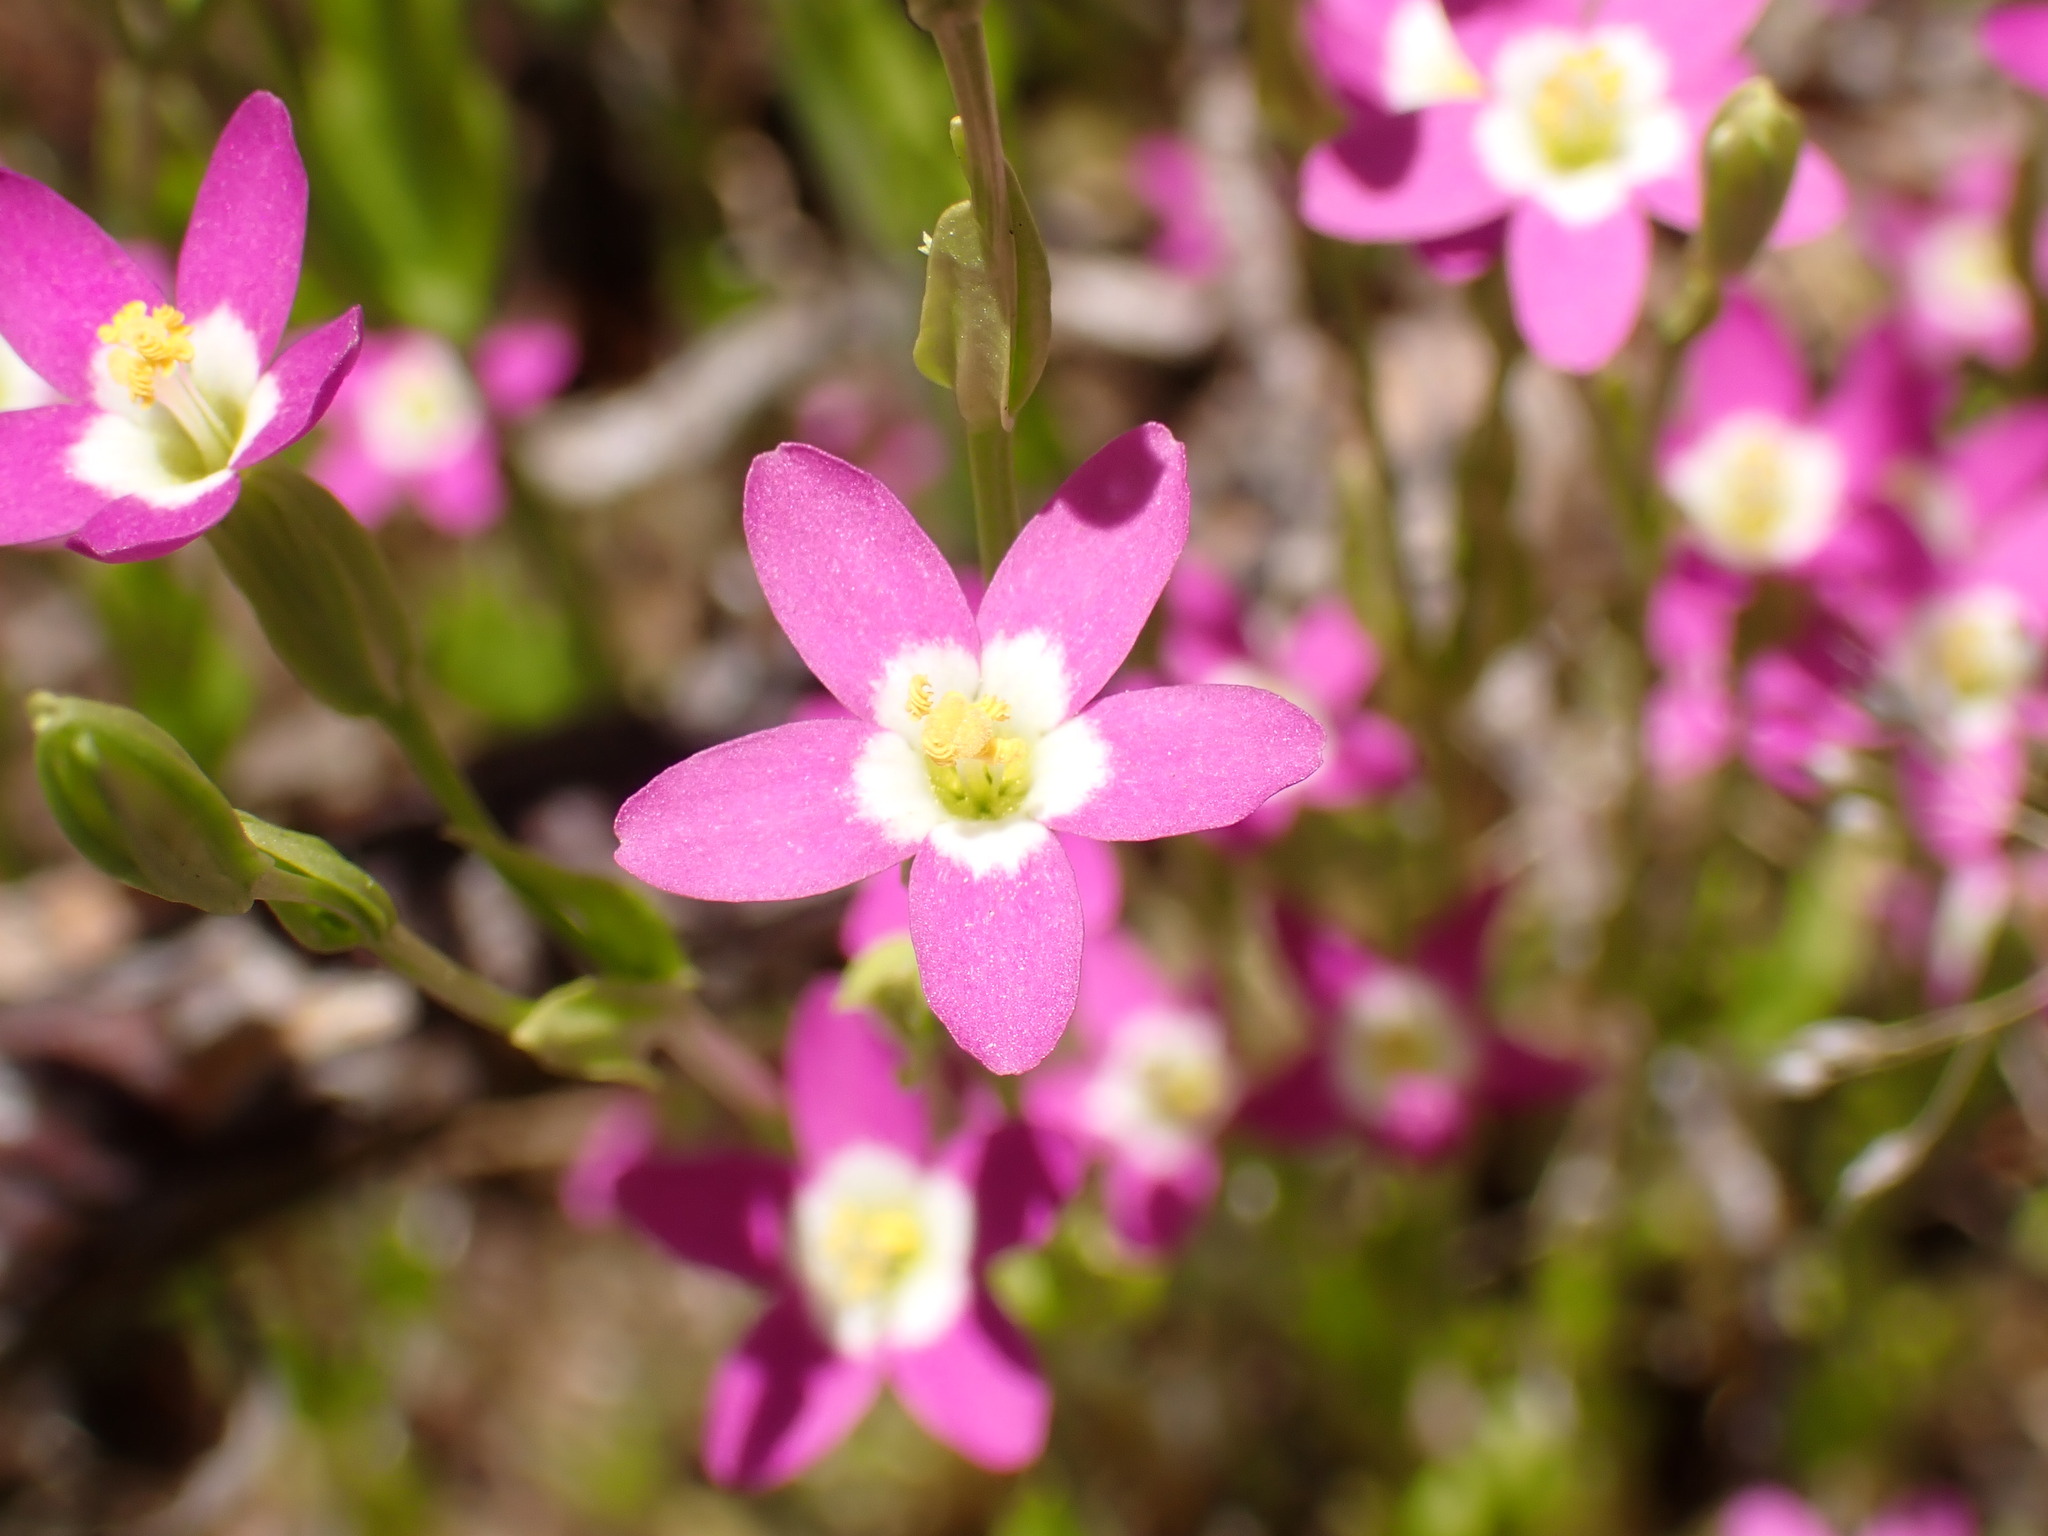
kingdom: Plantae
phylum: Tracheophyta
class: Magnoliopsida
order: Gentianales
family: Gentianaceae
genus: Zeltnera
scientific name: Zeltnera davyi
